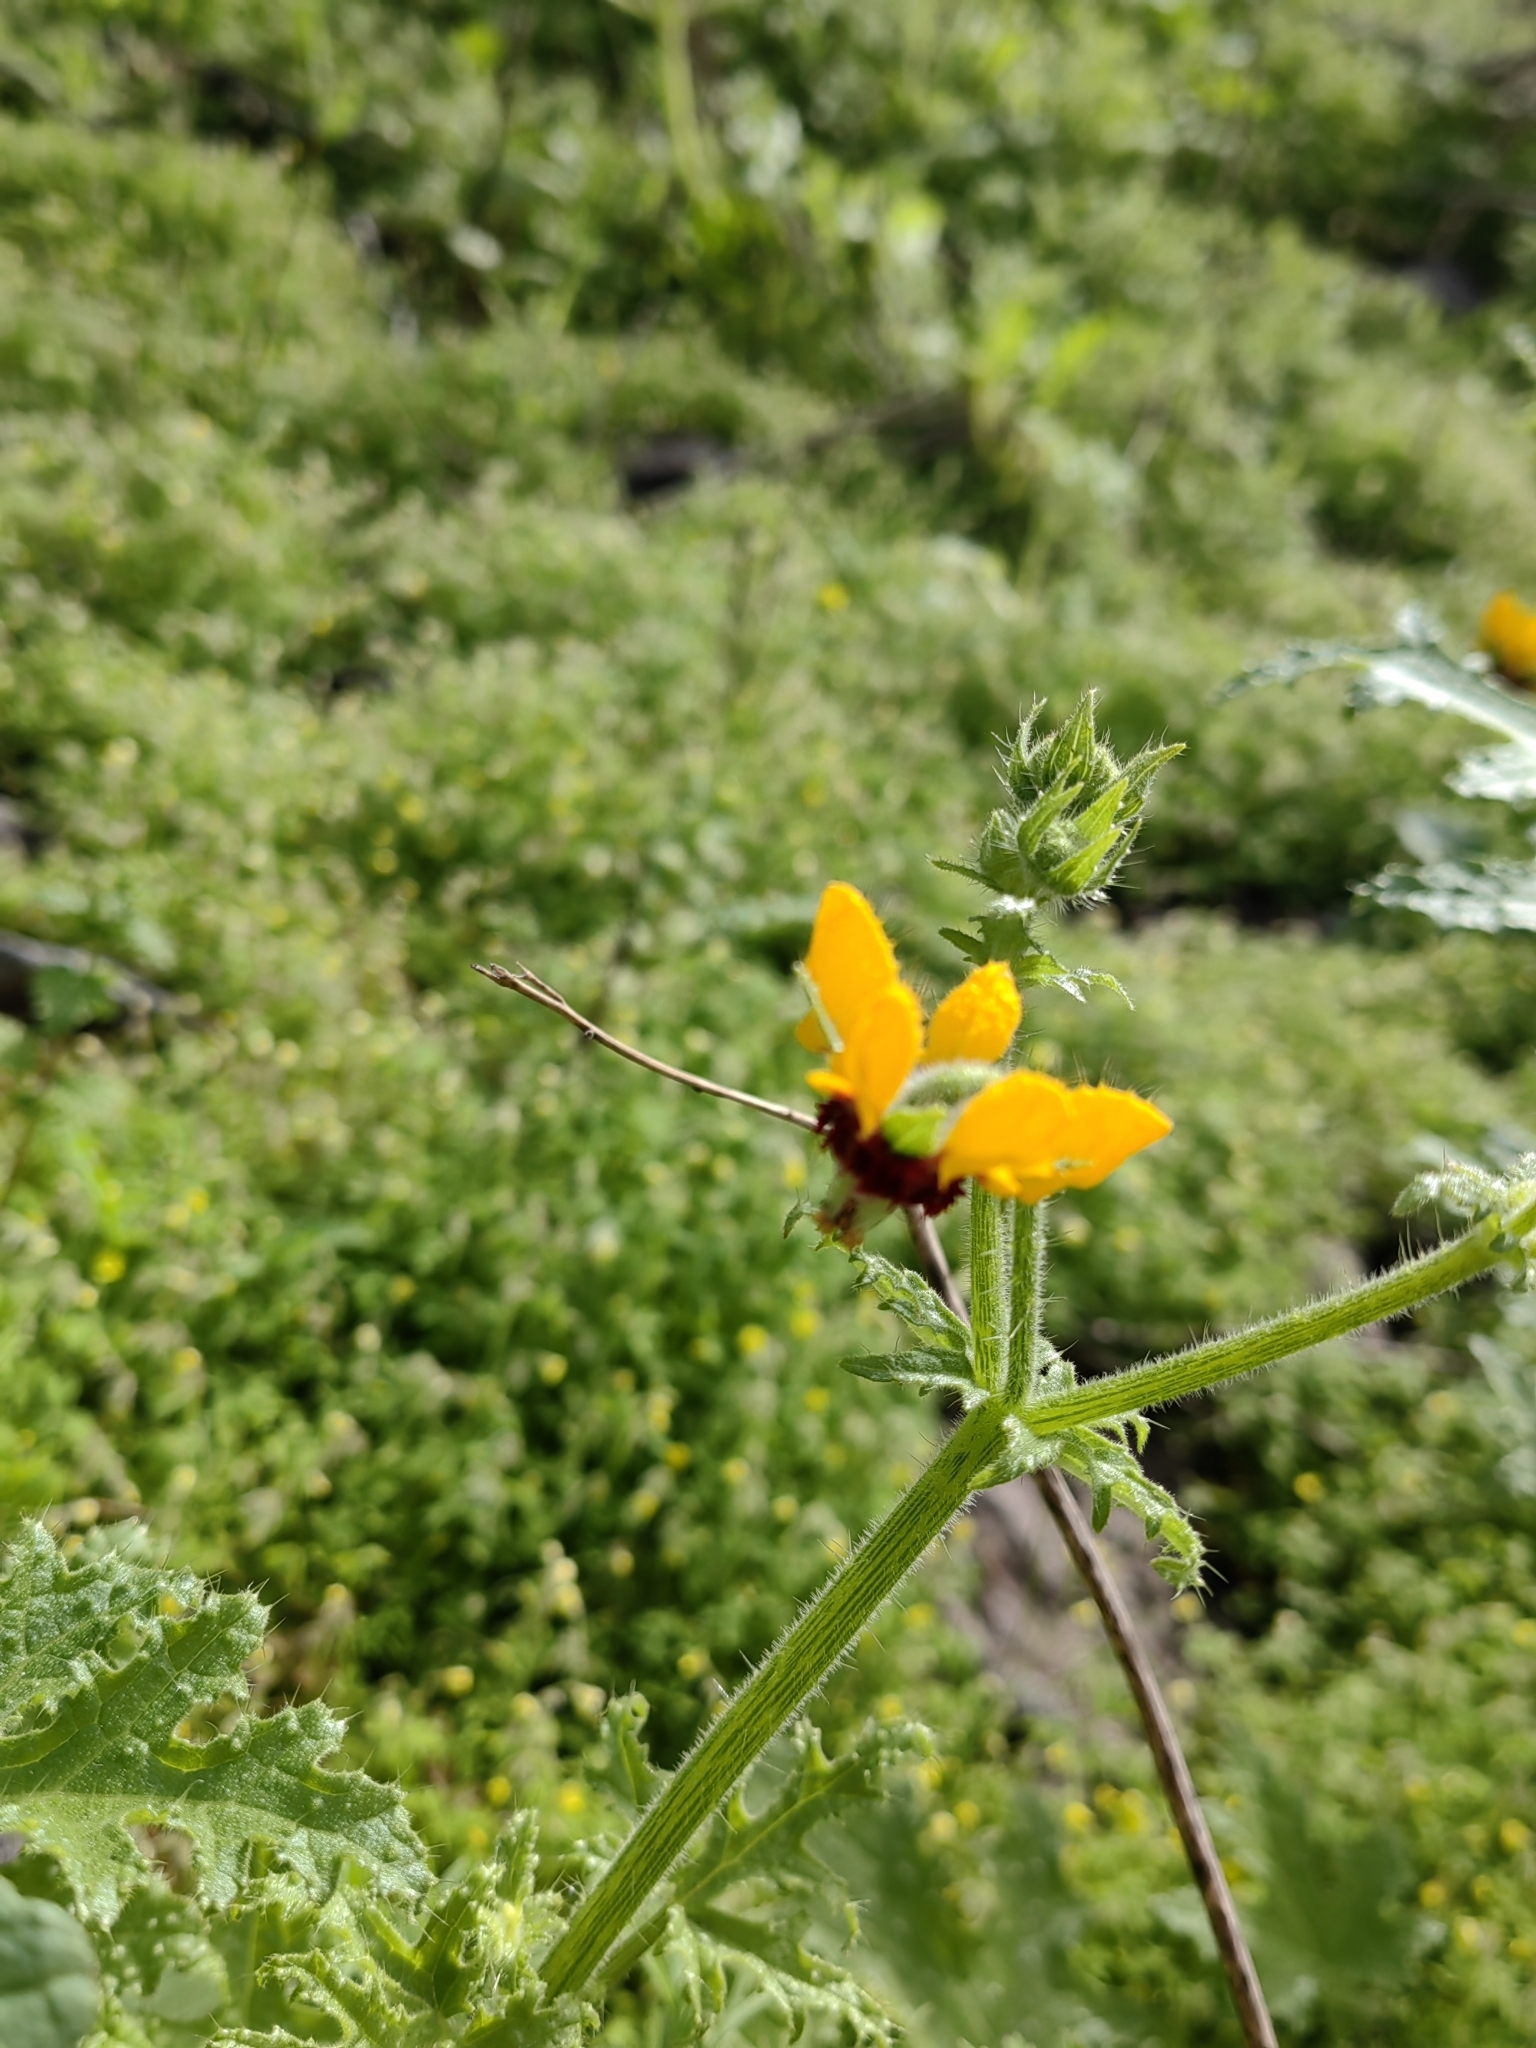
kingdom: Plantae
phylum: Tracheophyta
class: Magnoliopsida
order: Cornales
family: Loasaceae
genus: Loasa
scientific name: Loasa tricolor
